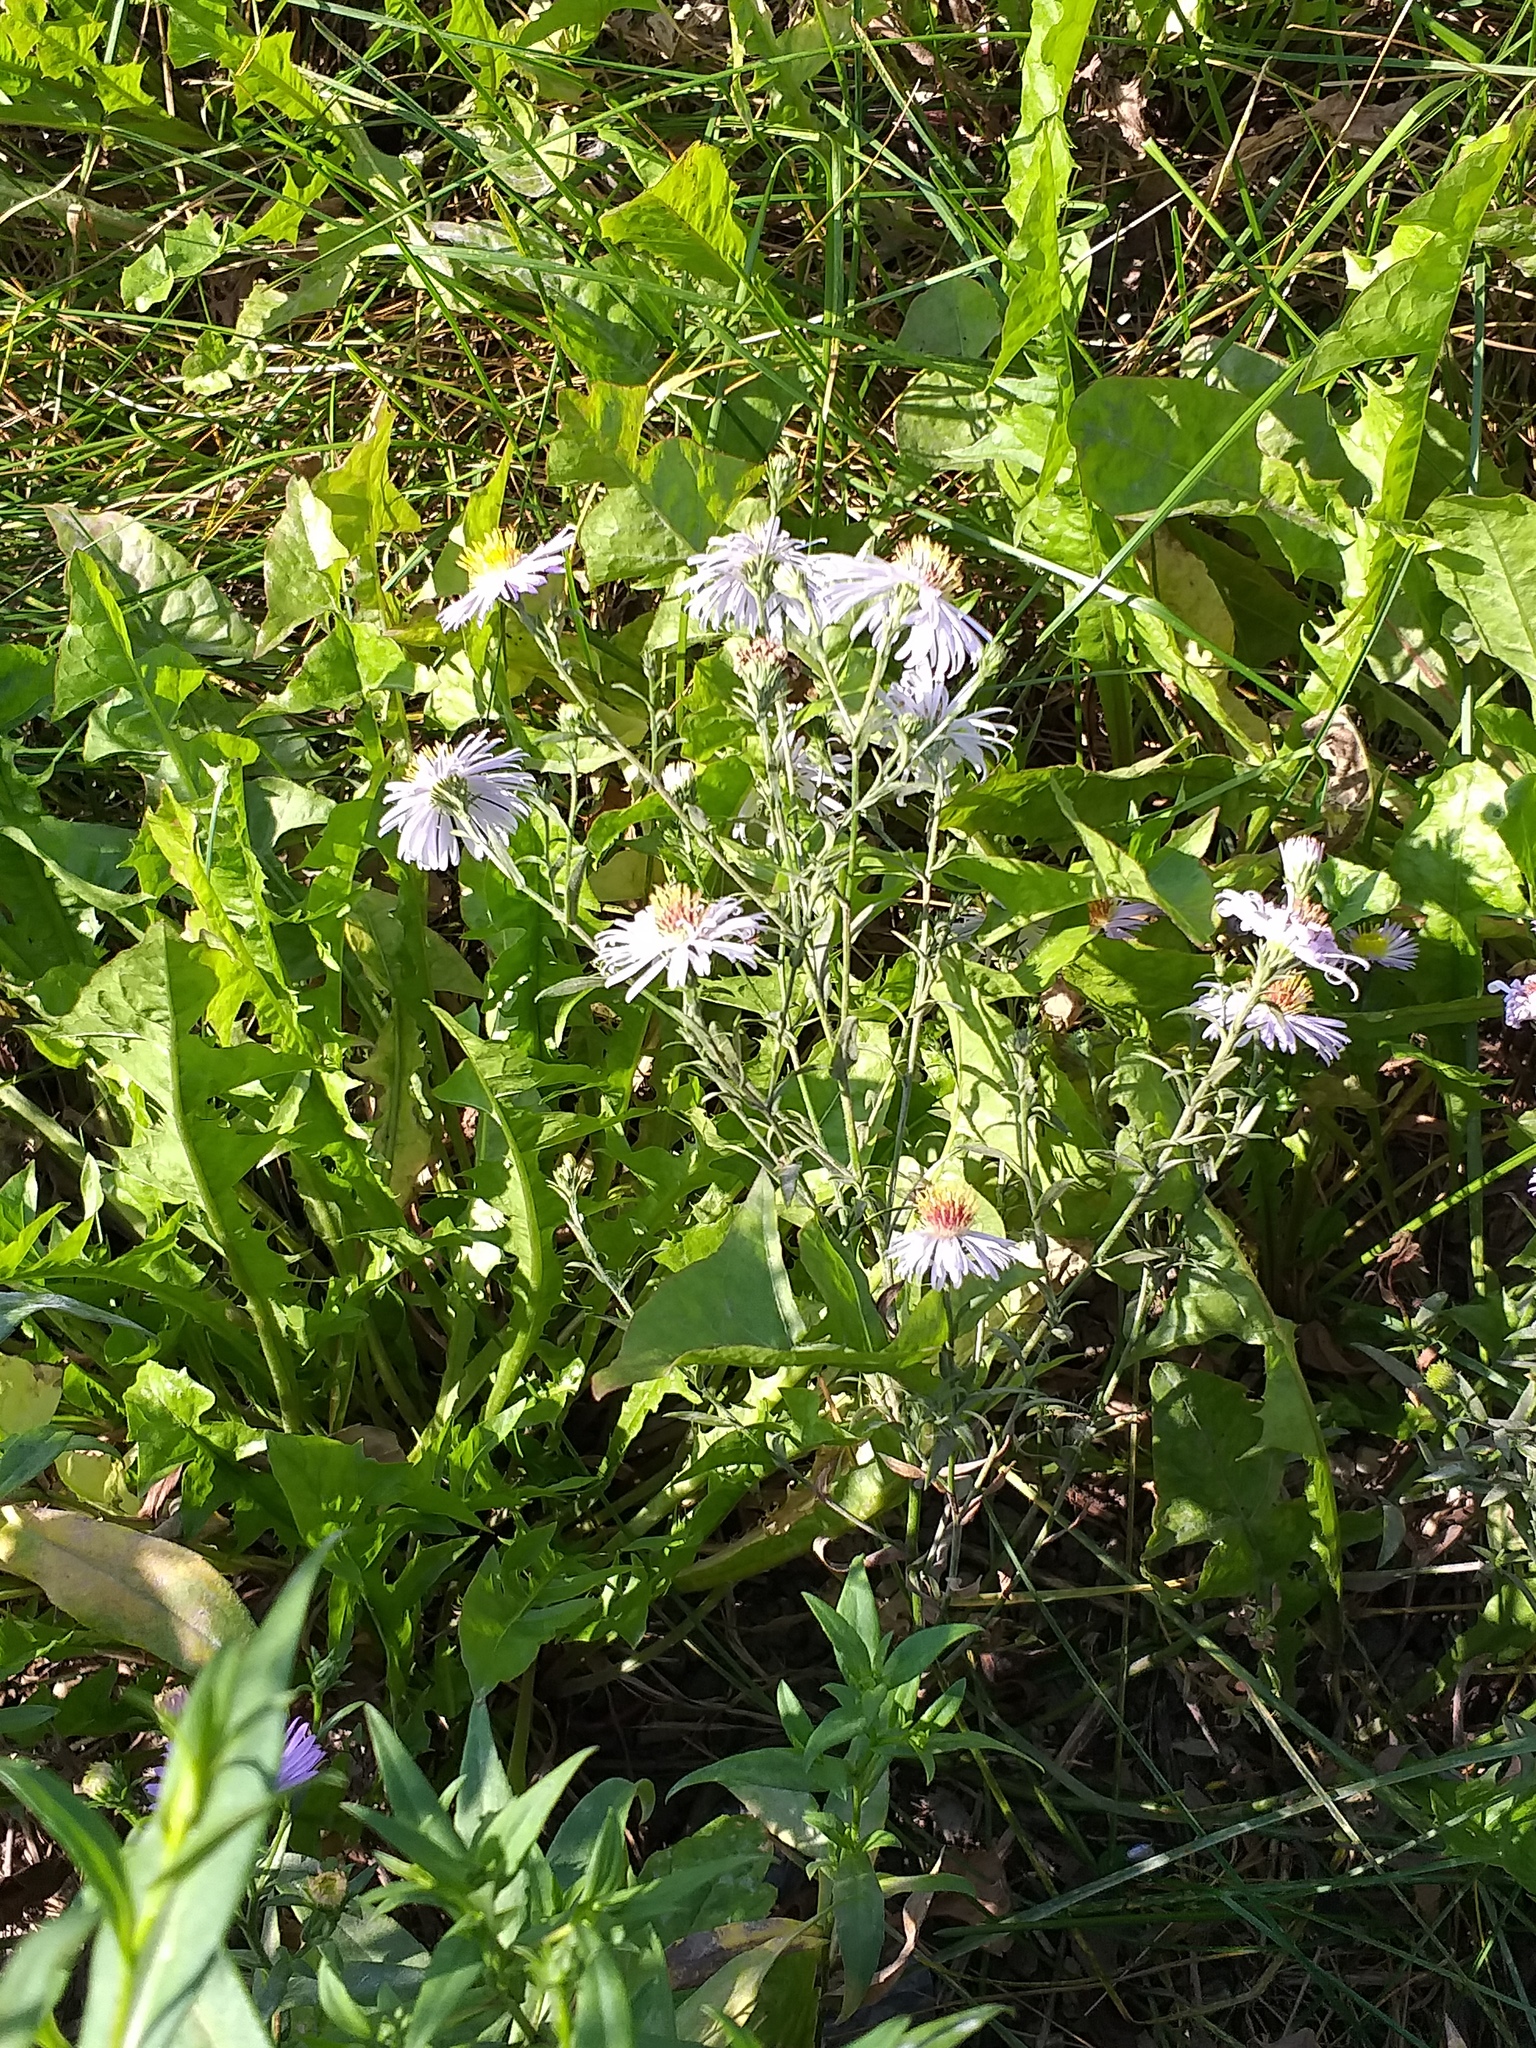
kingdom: Plantae
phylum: Tracheophyta
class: Magnoliopsida
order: Asterales
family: Asteraceae
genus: Symphyotrichum
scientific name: Symphyotrichum novi-belgii
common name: Michaelmas daisy
